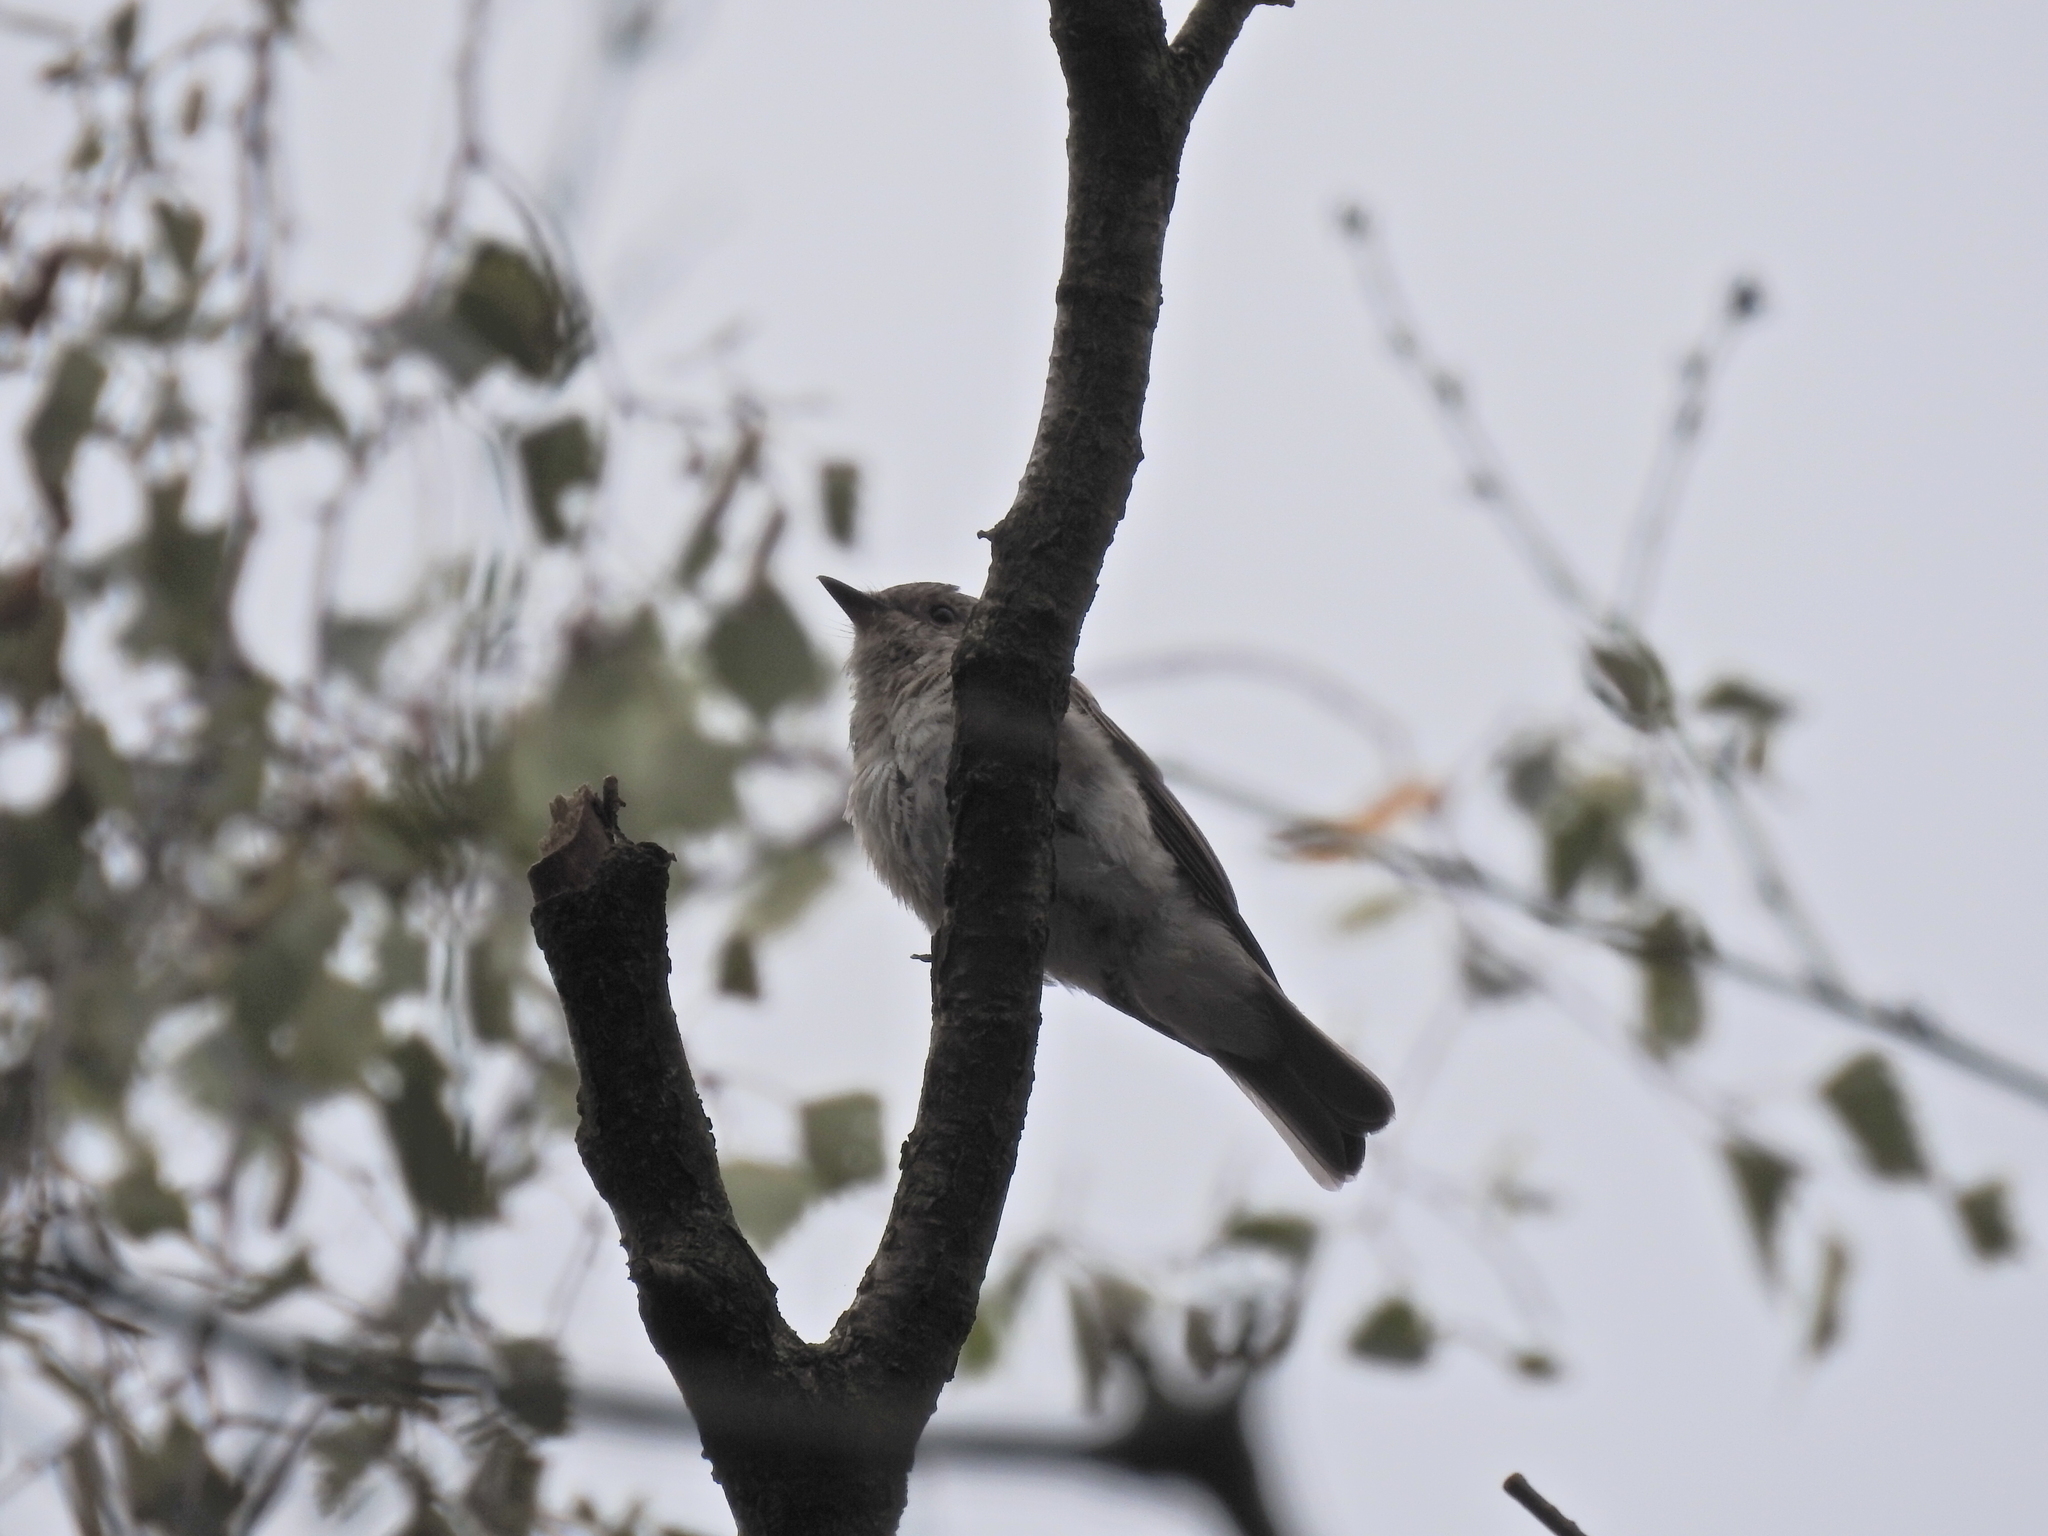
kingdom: Animalia
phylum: Chordata
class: Aves
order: Passeriformes
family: Muscicapidae
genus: Muscicapa
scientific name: Muscicapa striata
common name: Spotted flycatcher
